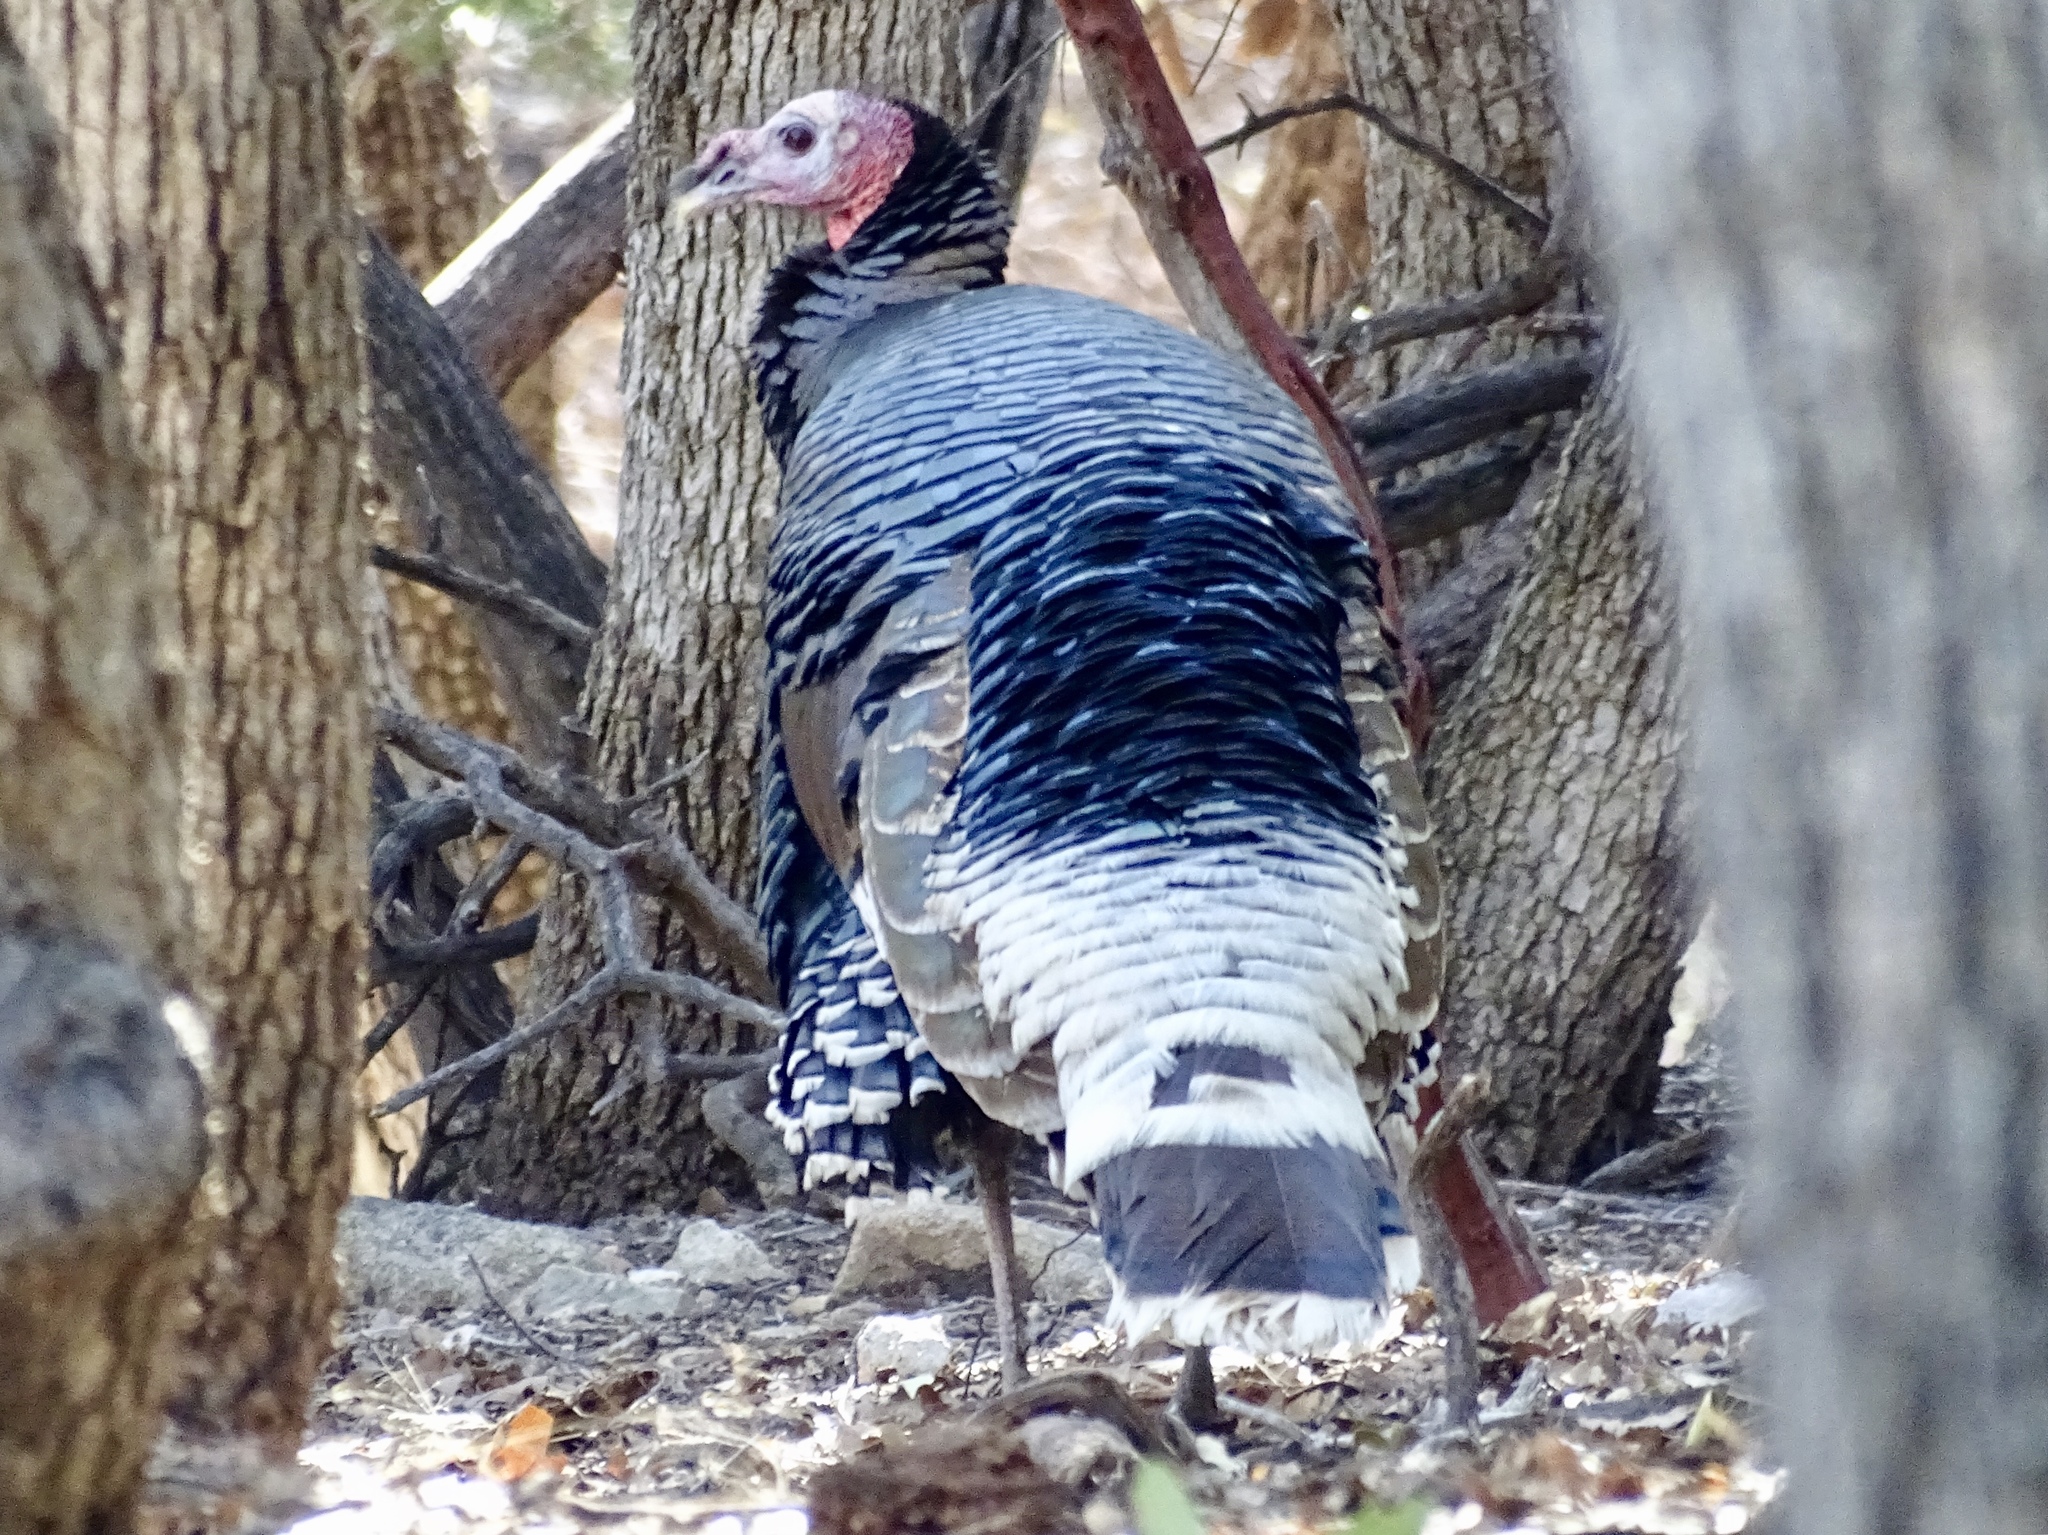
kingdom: Animalia
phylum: Chordata
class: Aves
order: Galliformes
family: Phasianidae
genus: Meleagris
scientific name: Meleagris gallopavo
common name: Wild turkey
